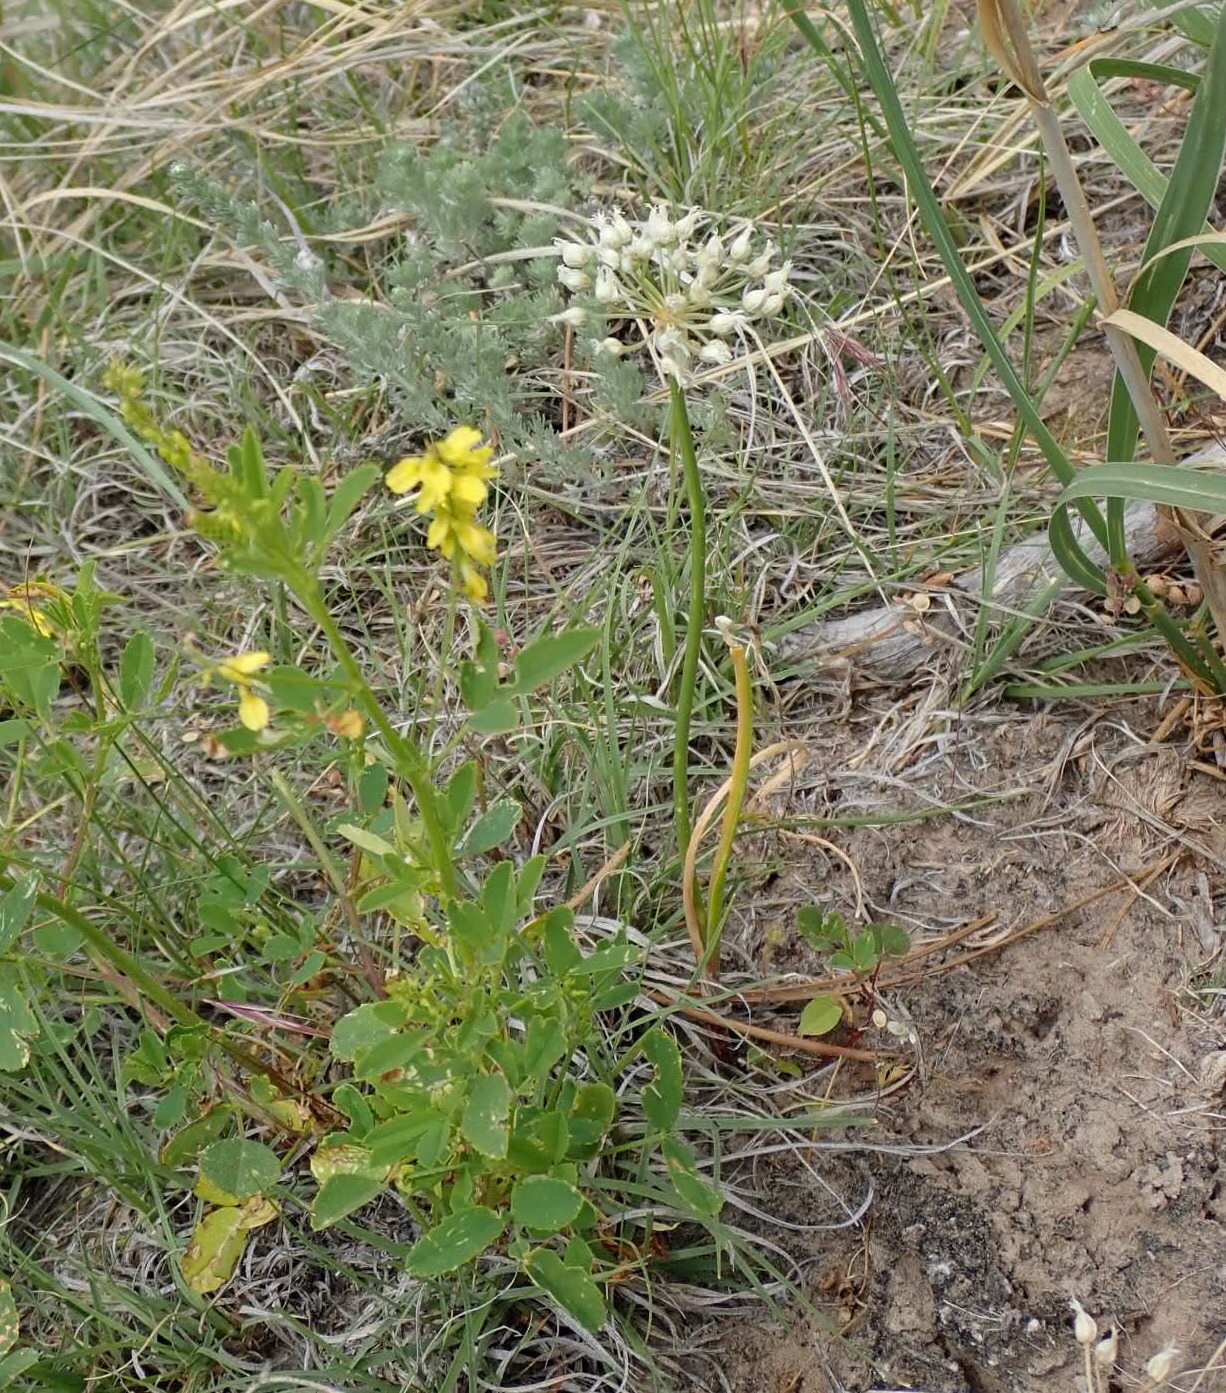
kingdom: Plantae
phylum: Tracheophyta
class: Liliopsida
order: Asparagales
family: Amaryllidaceae
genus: Allium
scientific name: Allium textile
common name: Prairie onion
